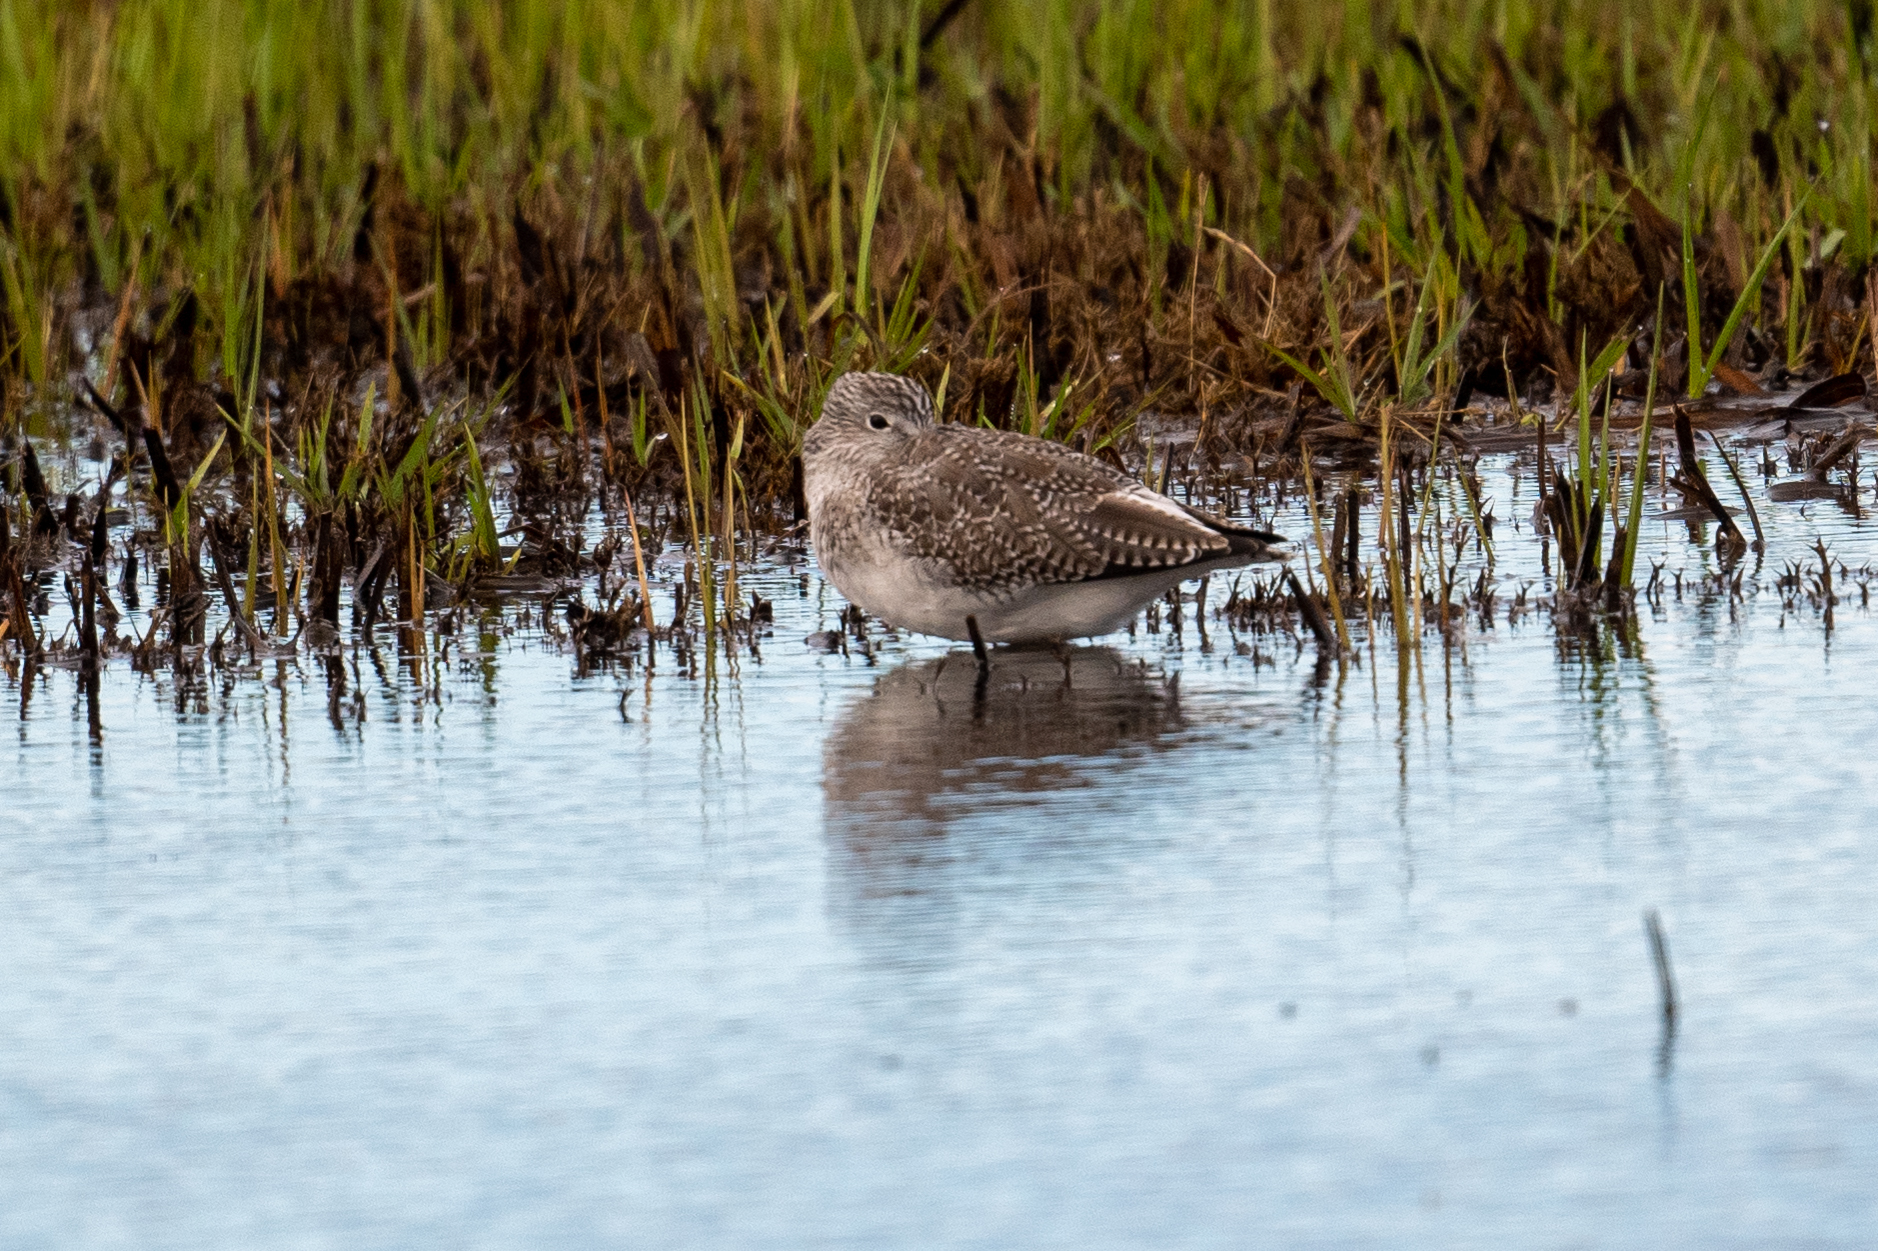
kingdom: Animalia
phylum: Chordata
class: Aves
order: Charadriiformes
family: Scolopacidae
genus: Tringa
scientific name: Tringa melanoleuca
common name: Greater yellowlegs
